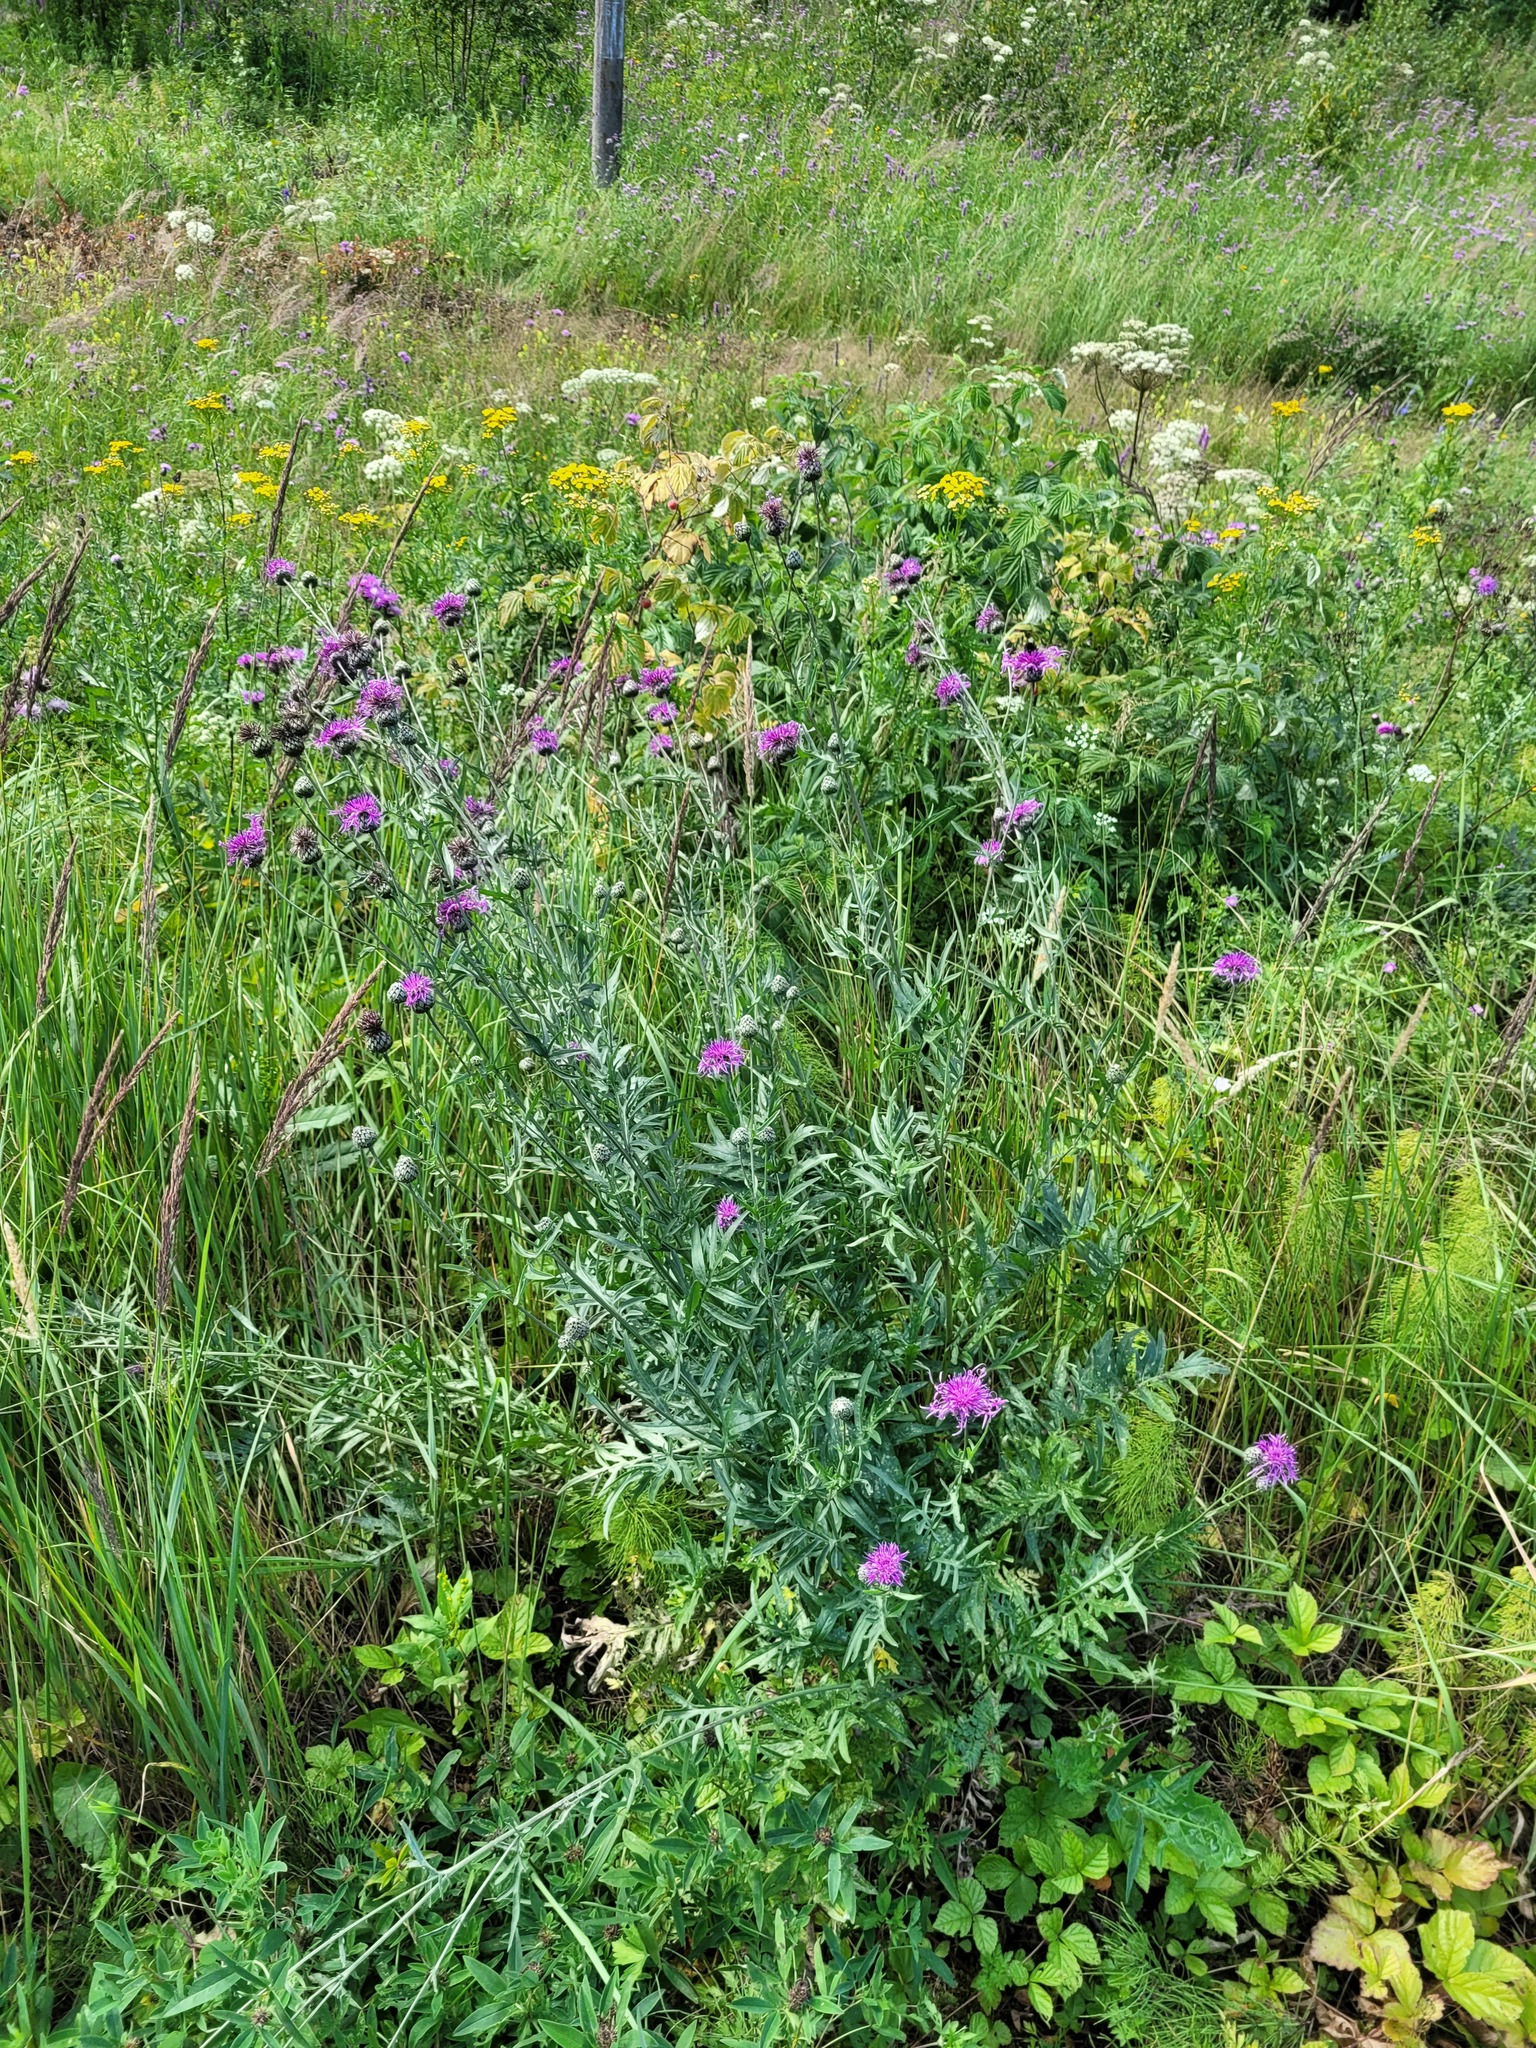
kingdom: Plantae
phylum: Tracheophyta
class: Magnoliopsida
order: Asterales
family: Asteraceae
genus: Centaurea
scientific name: Centaurea scabiosa
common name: Greater knapweed
